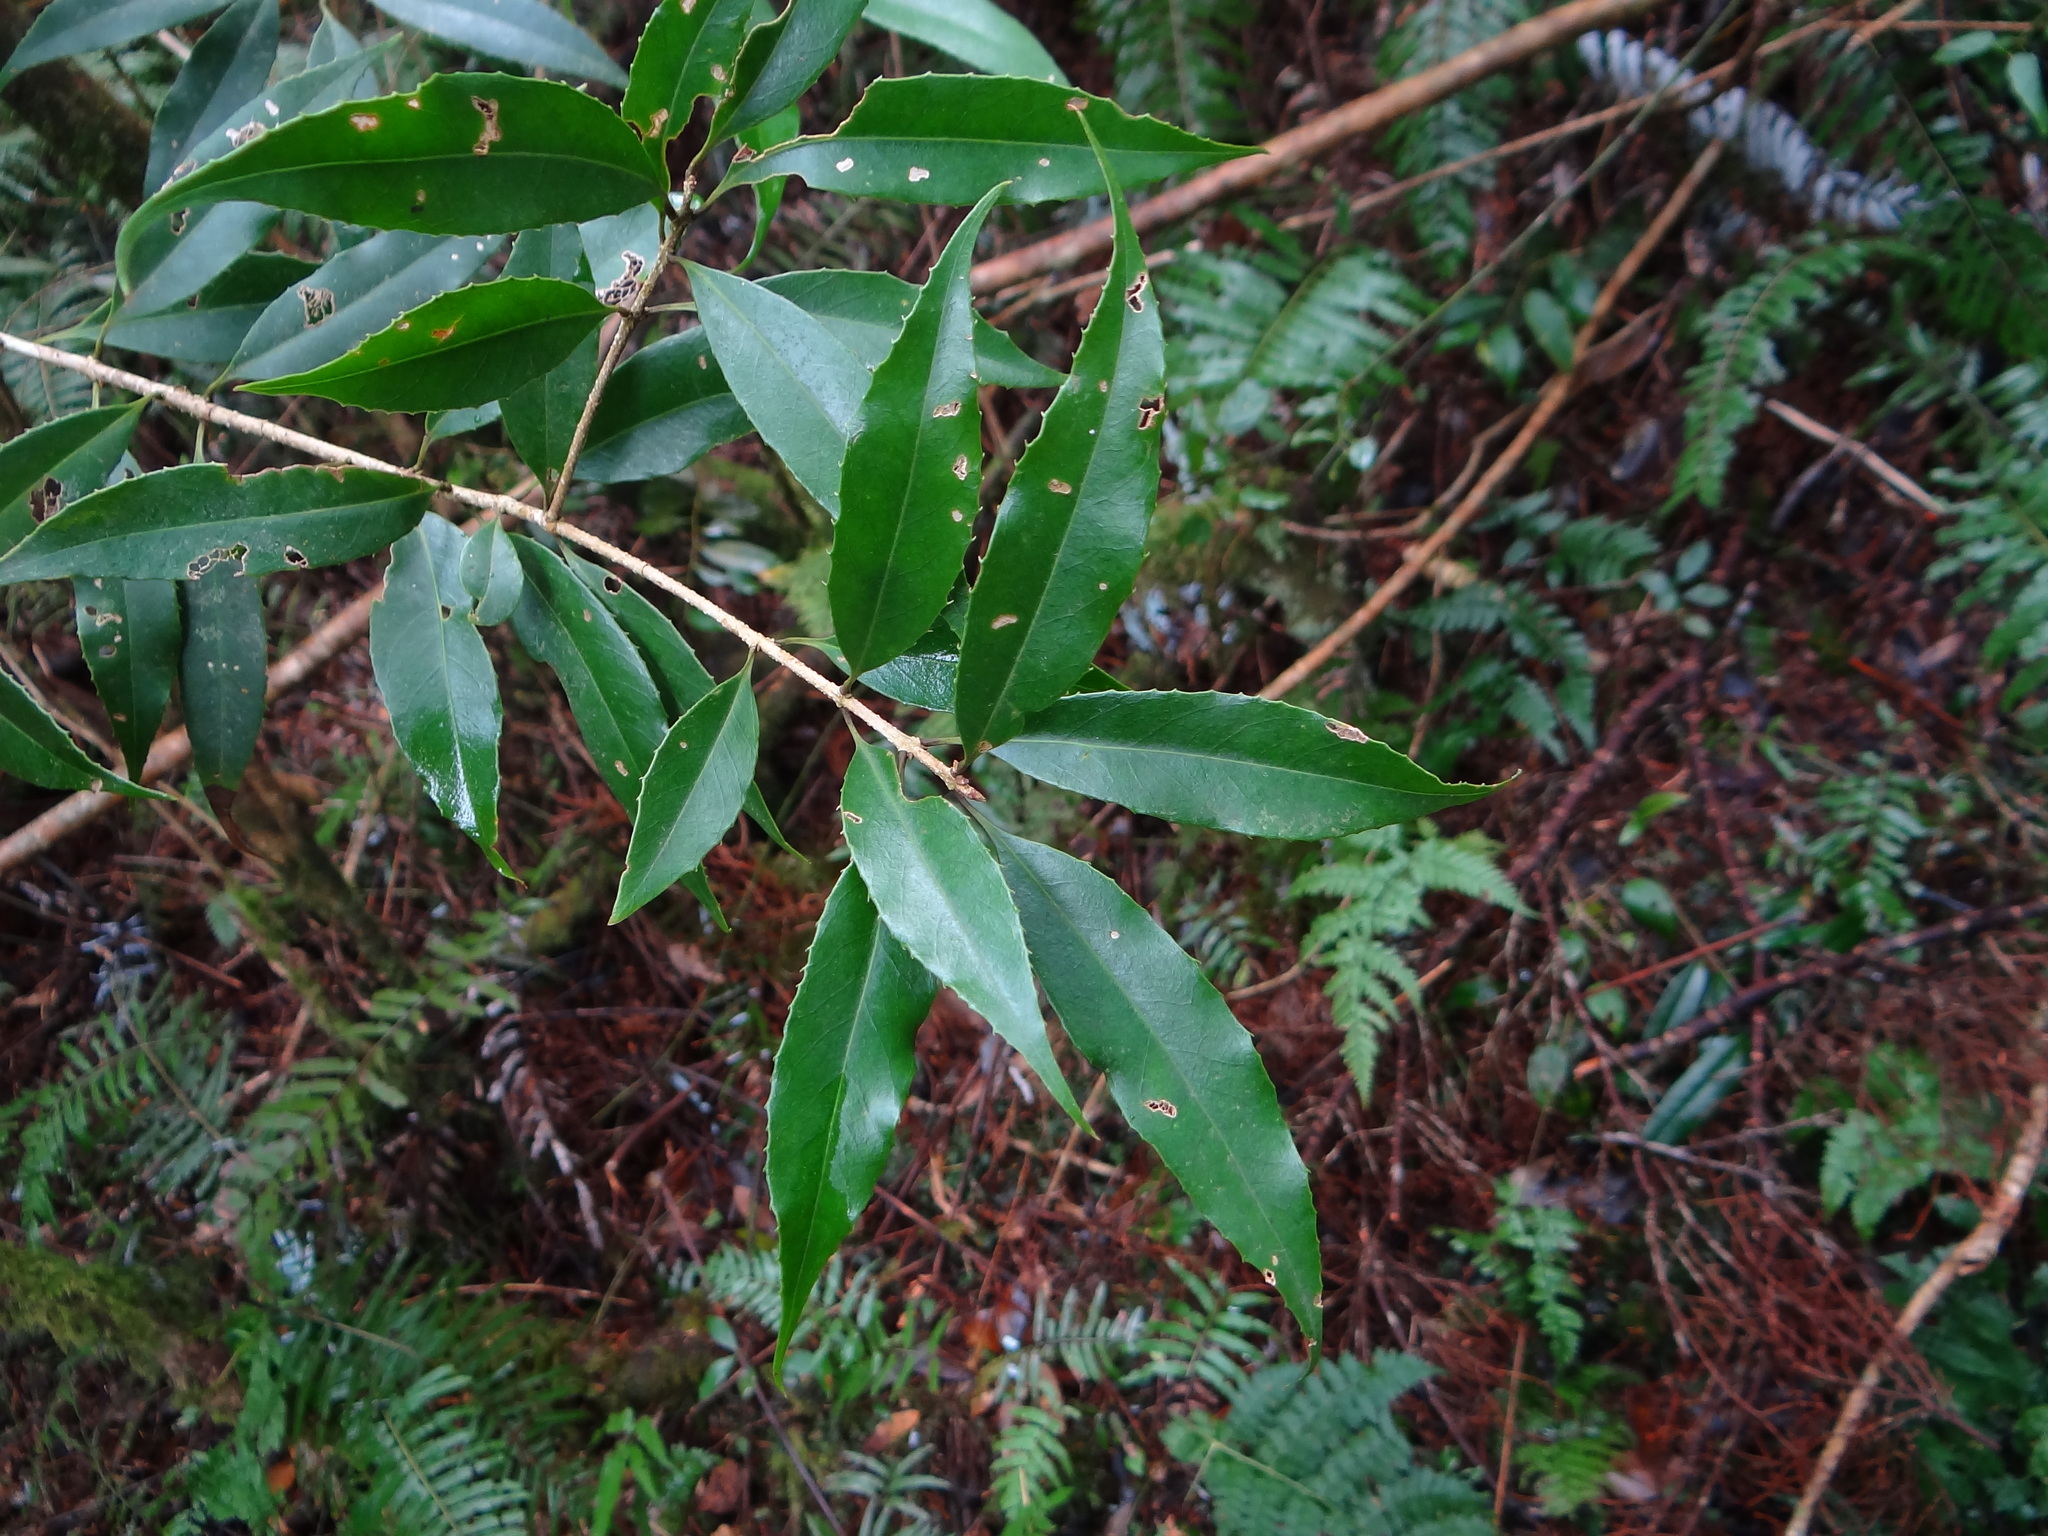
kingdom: Plantae
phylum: Tracheophyta
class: Magnoliopsida
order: Lamiales
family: Oleaceae
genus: Osmanthus
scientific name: Osmanthus lanceolatus
